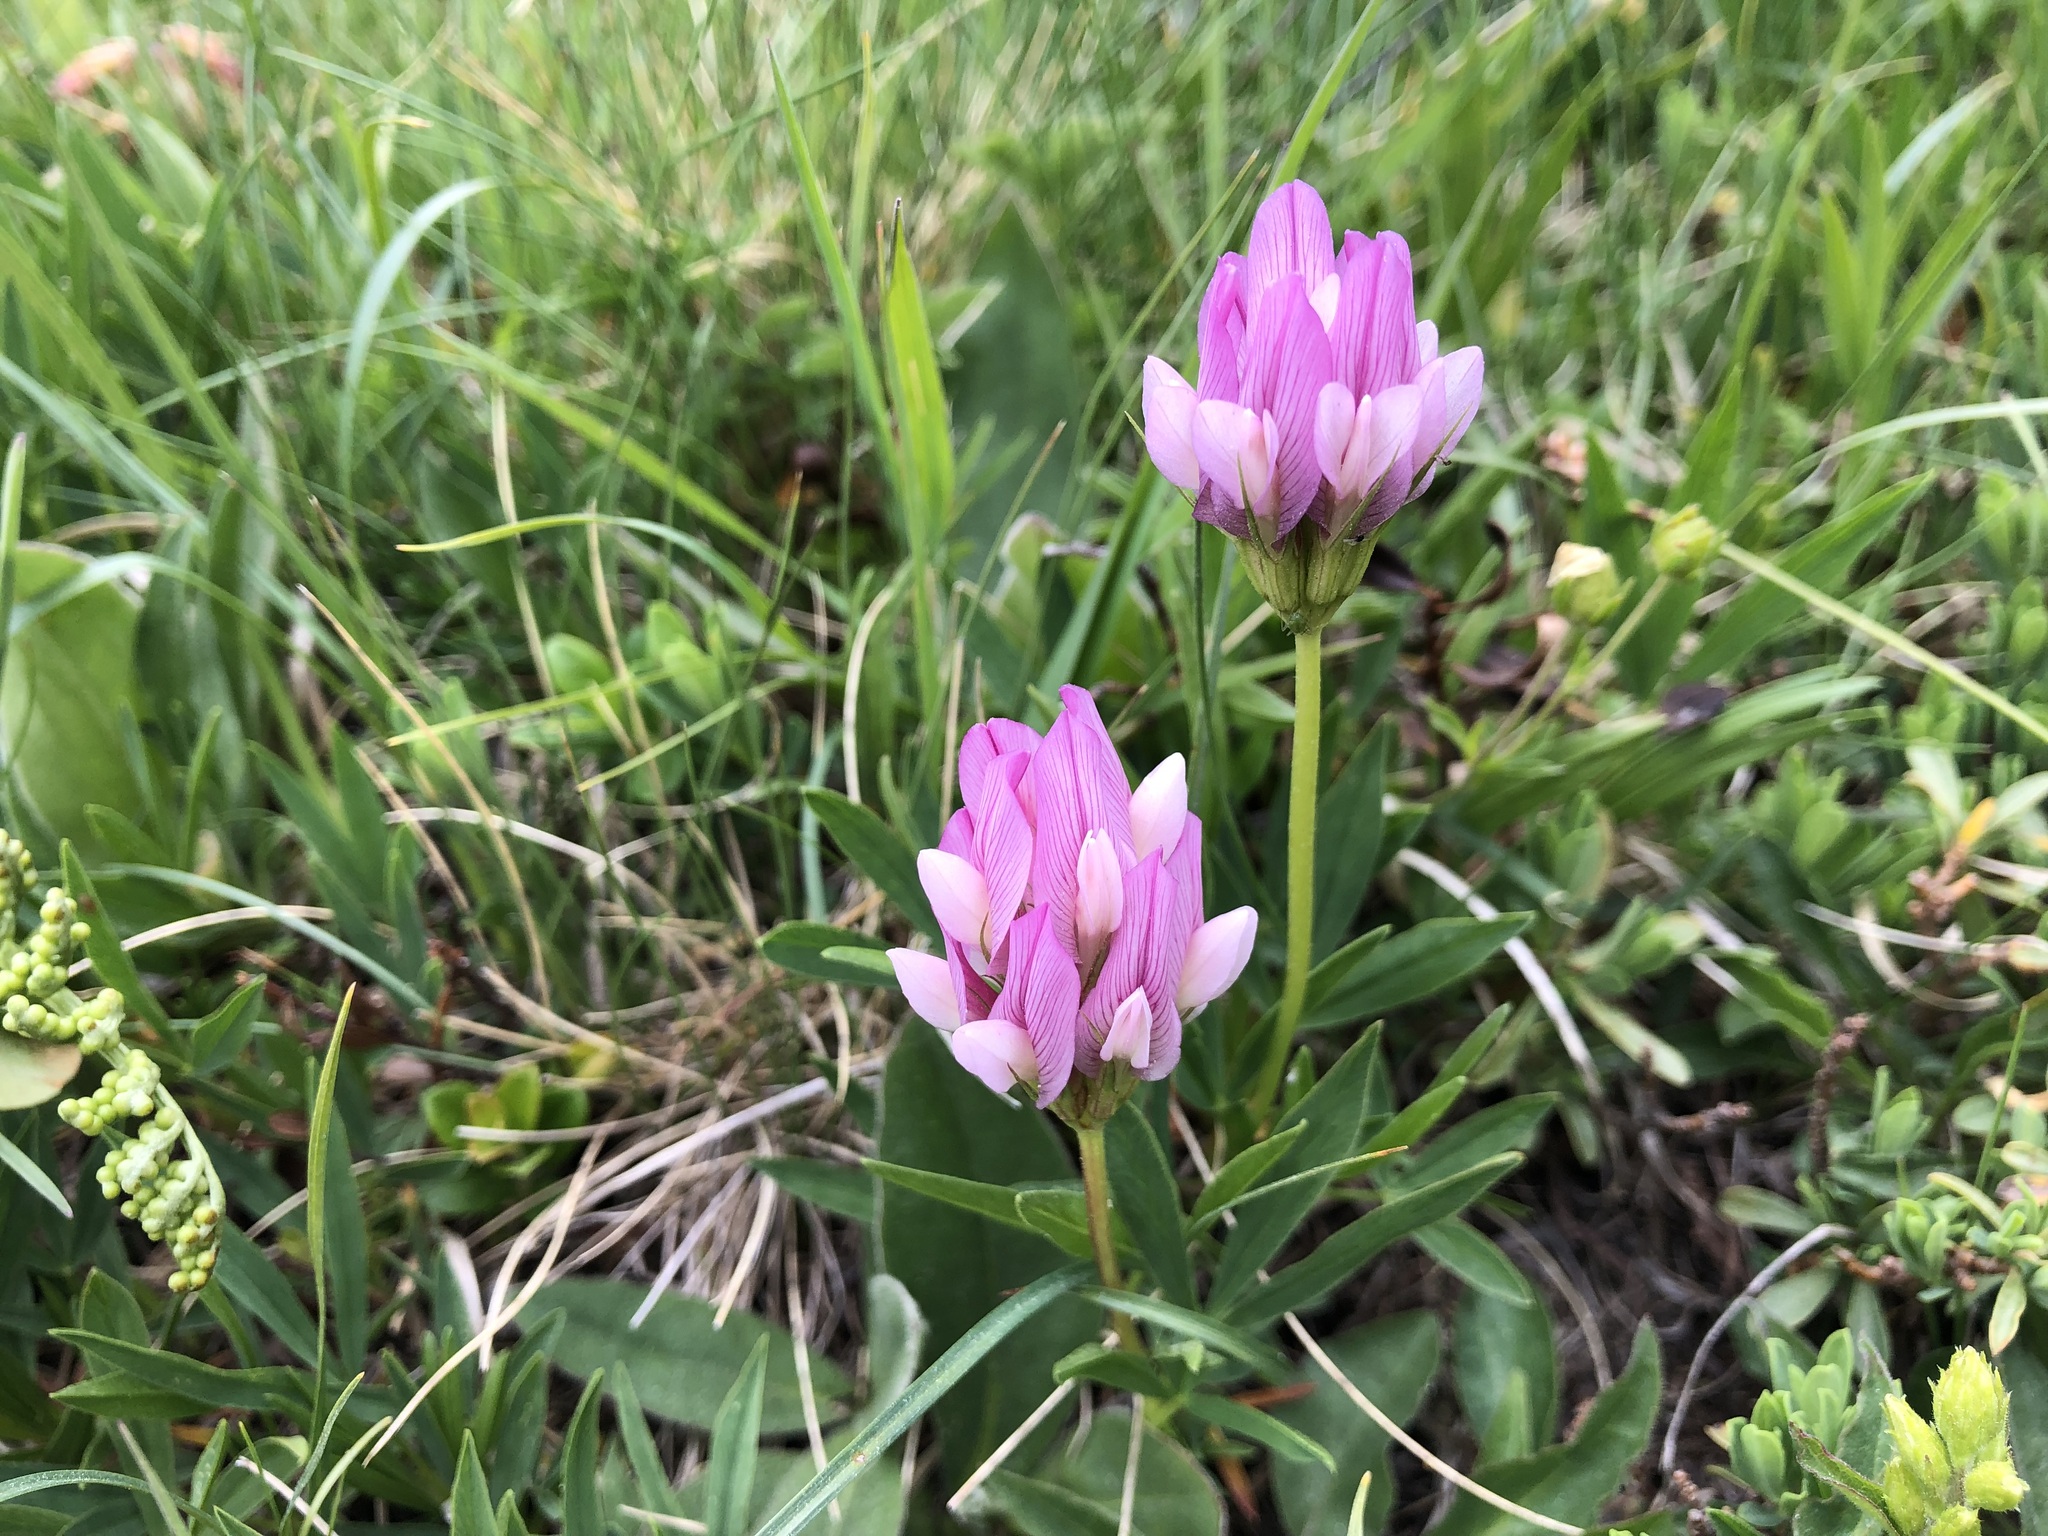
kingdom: Plantae
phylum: Tracheophyta
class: Magnoliopsida
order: Fabales
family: Fabaceae
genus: Trifolium
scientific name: Trifolium alpinum
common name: Alpine clover
